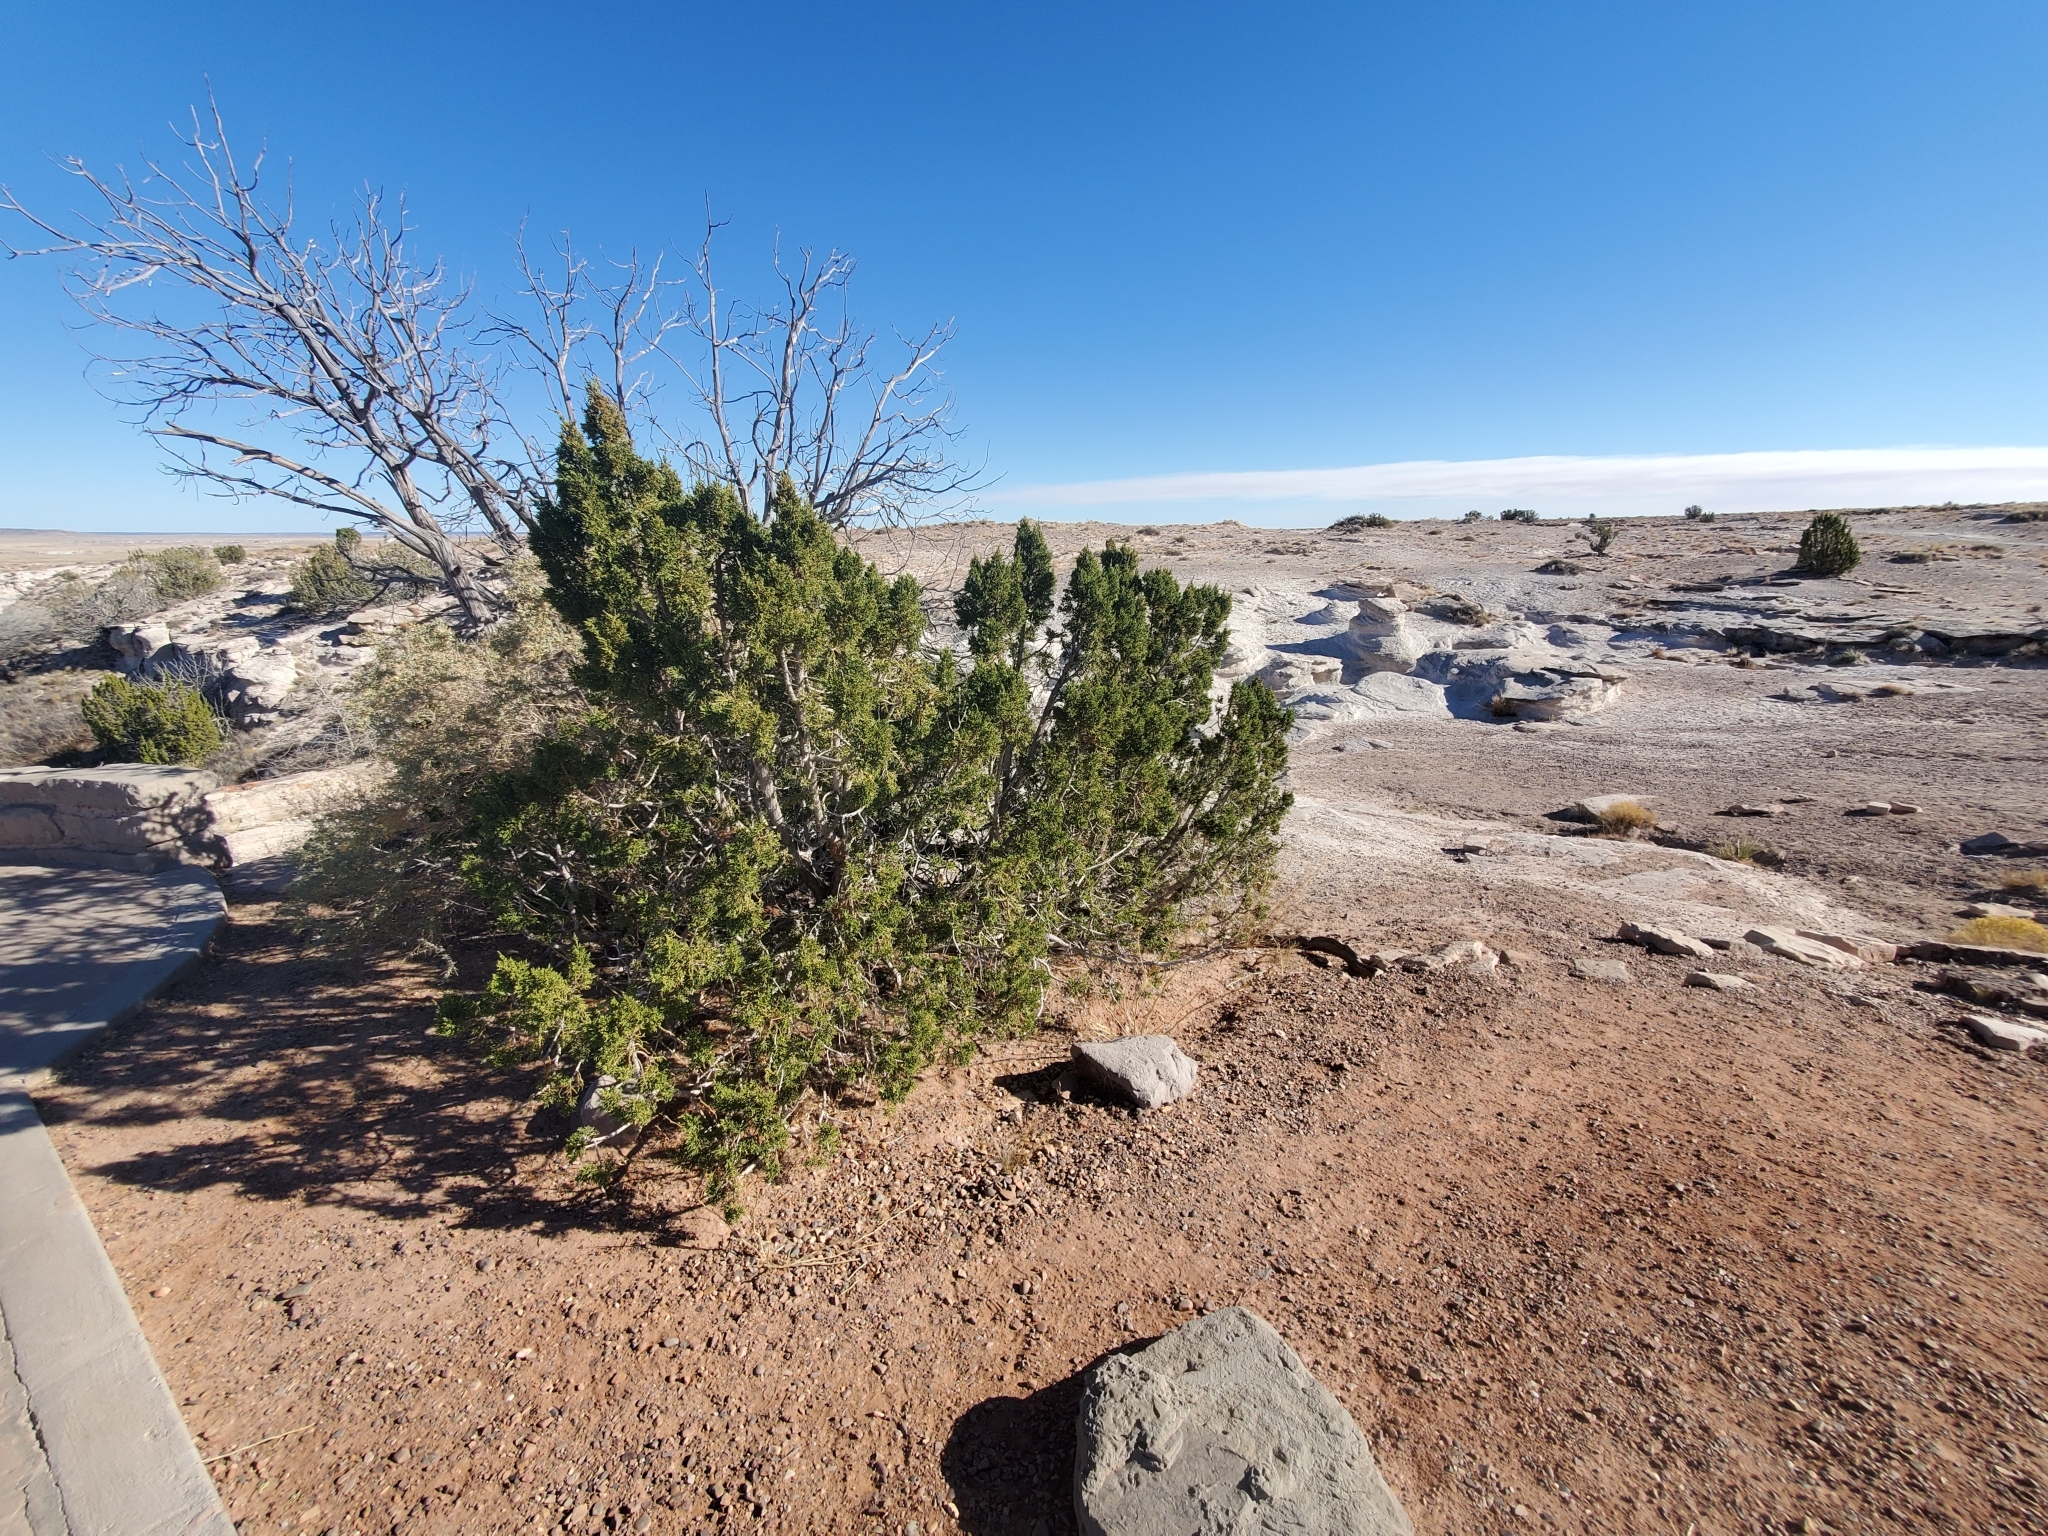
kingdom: Plantae
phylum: Tracheophyta
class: Pinopsida
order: Pinales
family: Cupressaceae
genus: Juniperus
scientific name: Juniperus monosperma
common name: One-seed juniper
